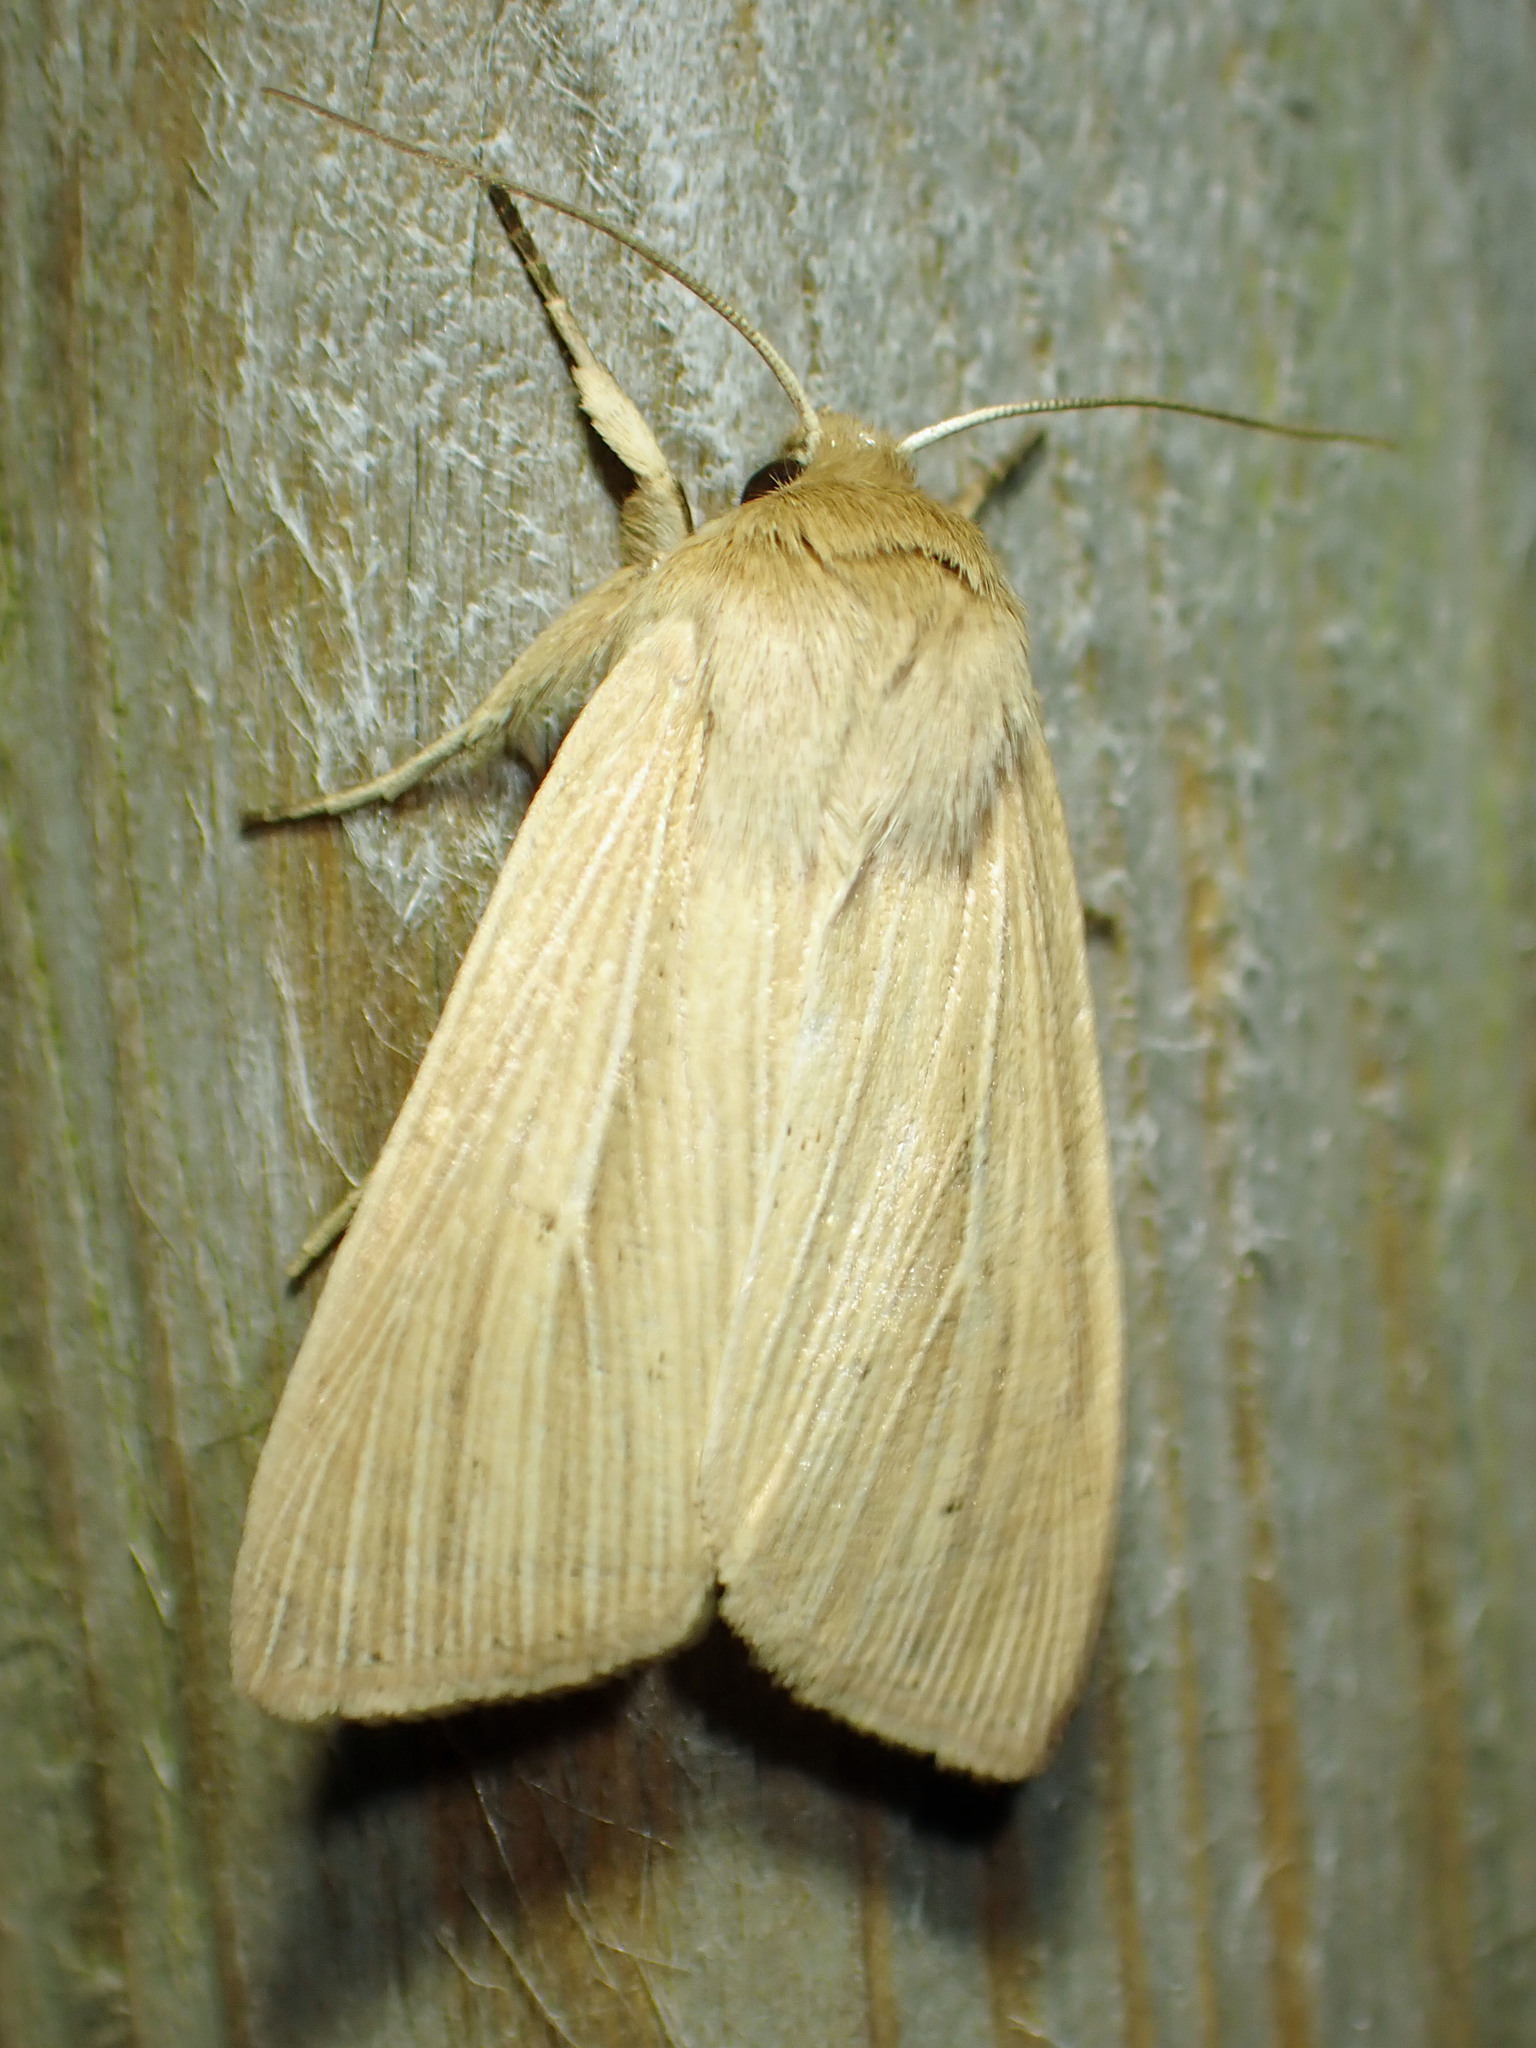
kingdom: Animalia
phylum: Arthropoda
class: Insecta
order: Lepidoptera
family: Noctuidae
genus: Mythimna
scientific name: Mythimna oxygala
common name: Lesser wainscot
